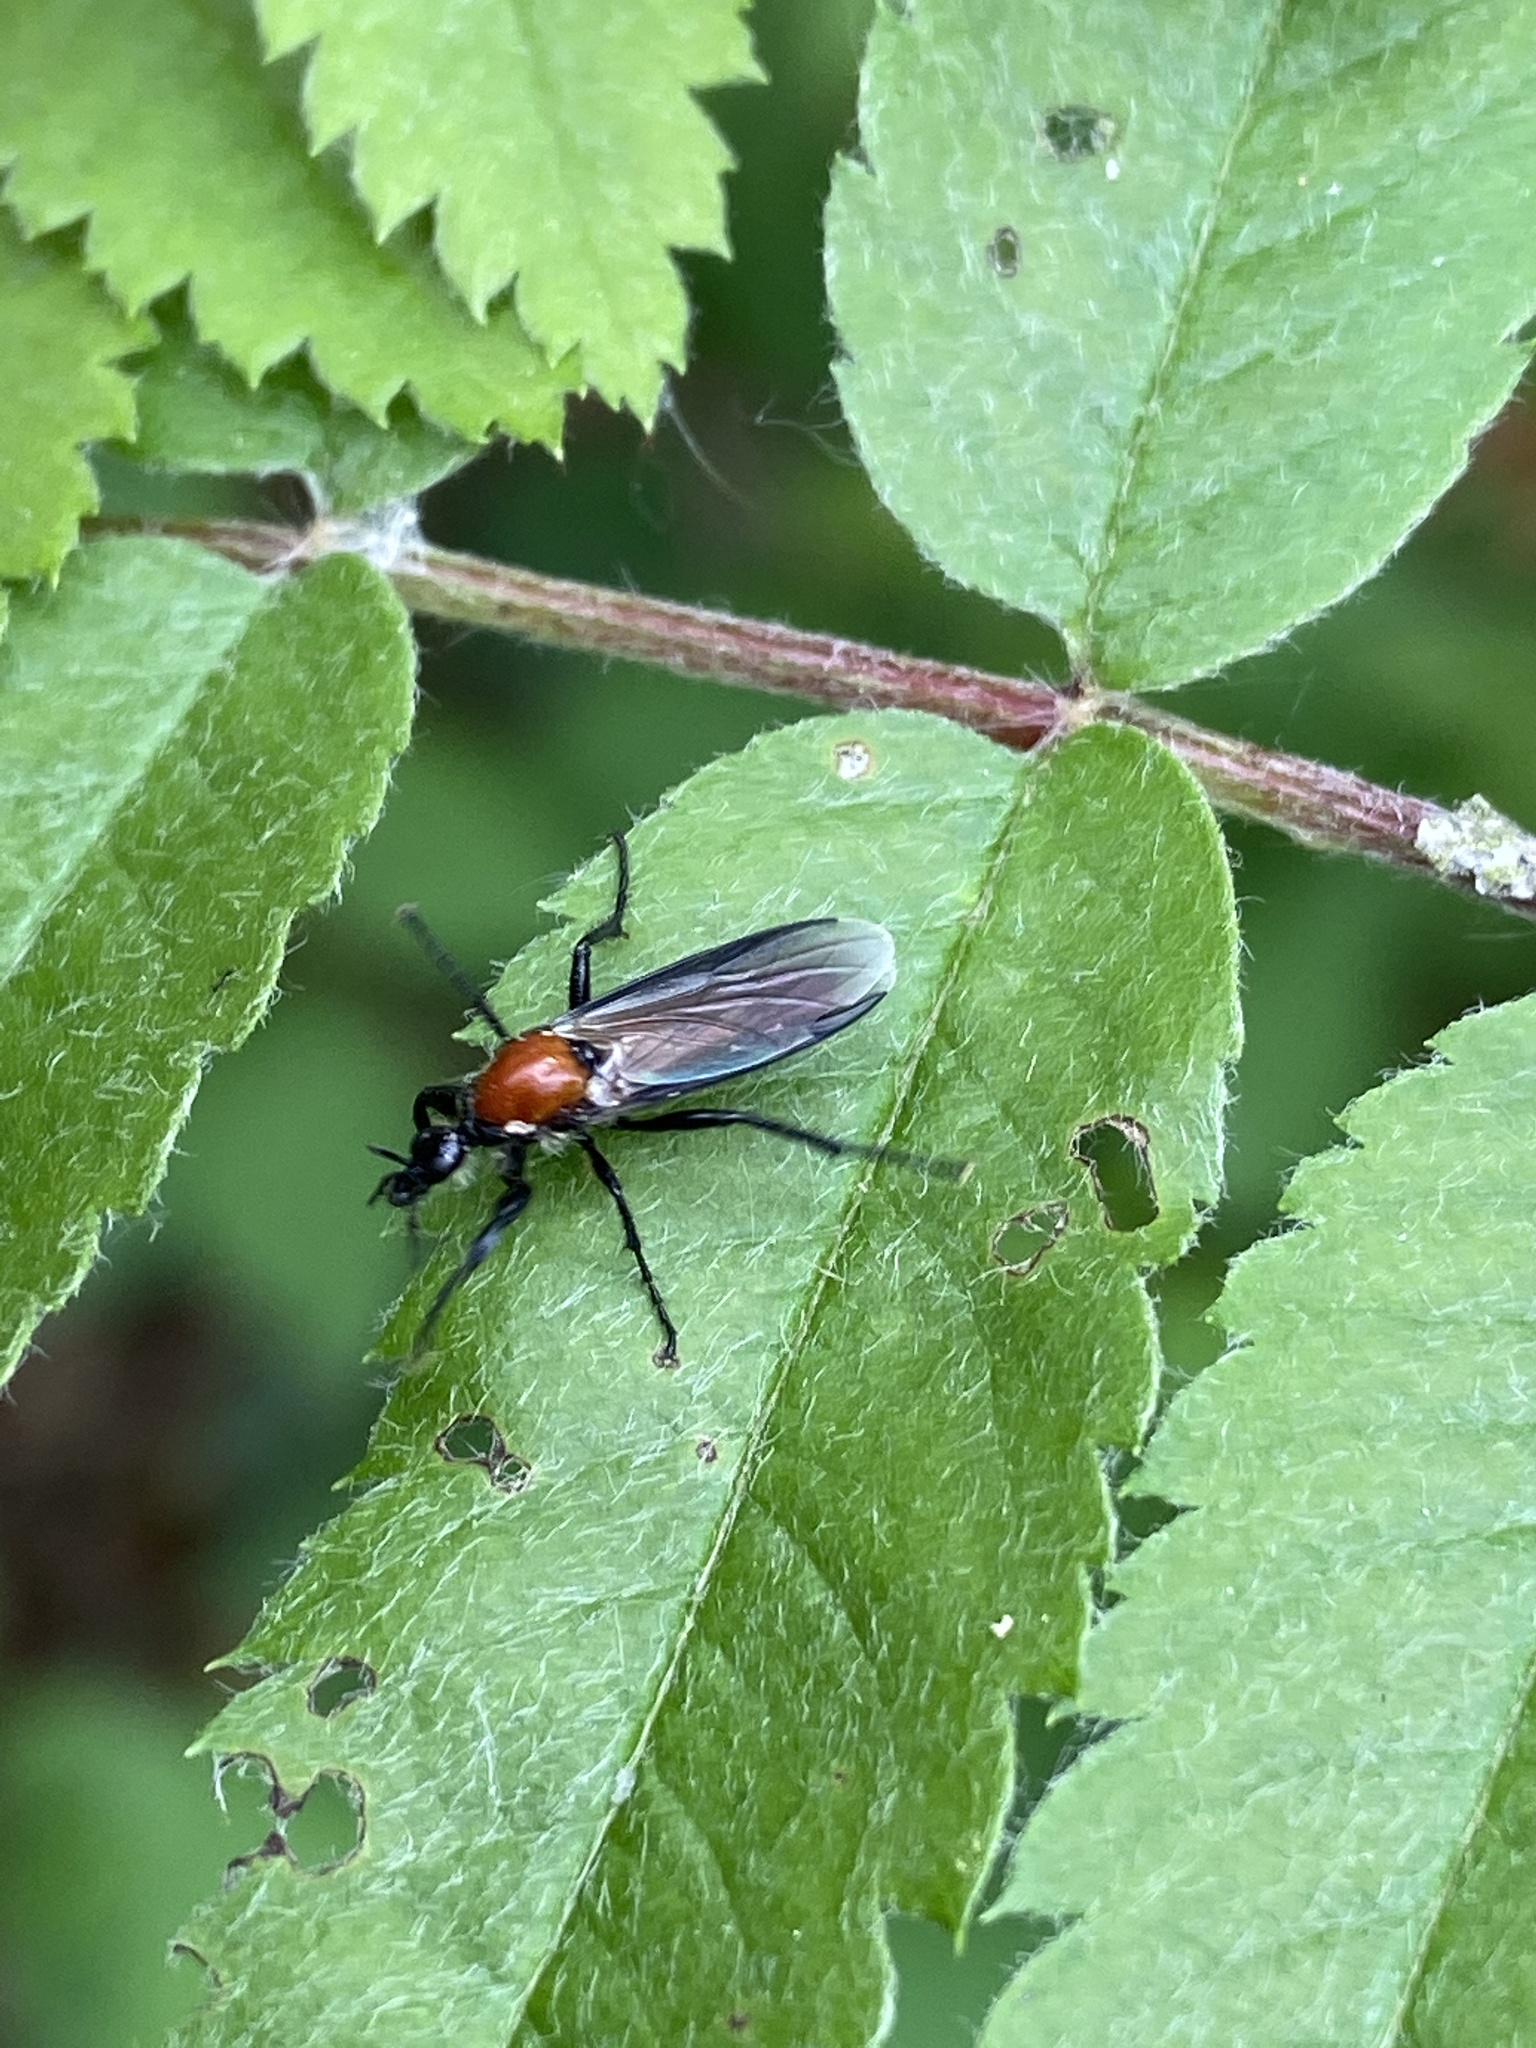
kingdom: Animalia
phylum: Arthropoda
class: Insecta
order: Diptera
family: Bibionidae
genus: Bibio
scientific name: Bibio hortulanus
